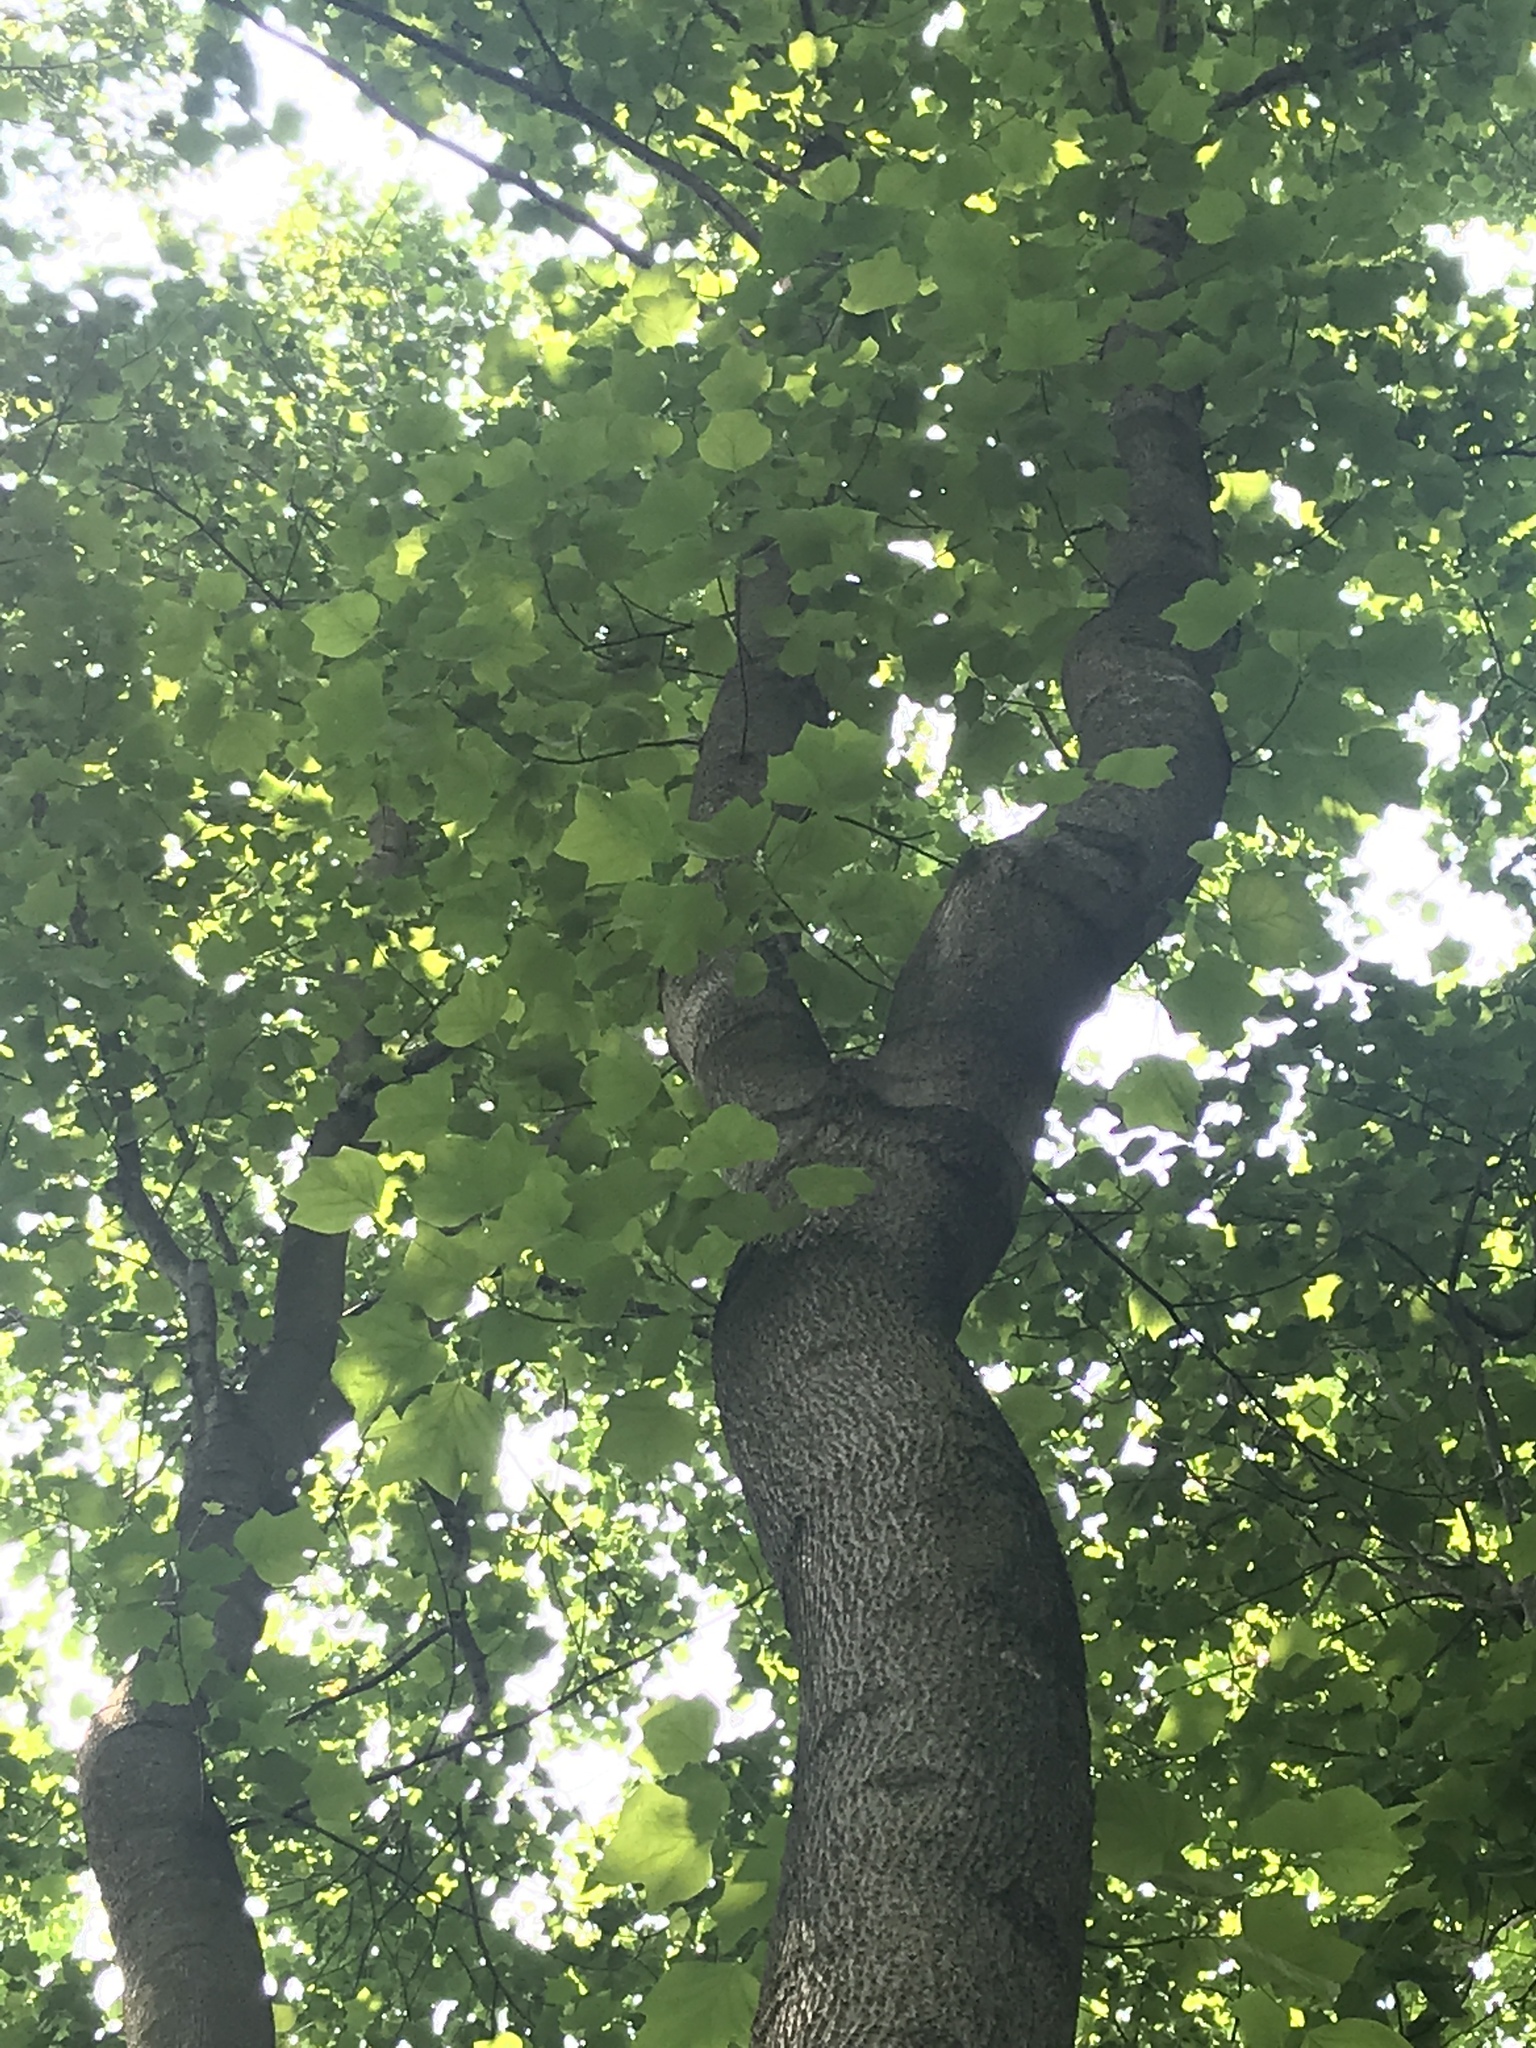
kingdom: Plantae
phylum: Tracheophyta
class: Magnoliopsida
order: Magnoliales
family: Magnoliaceae
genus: Liriodendron
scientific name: Liriodendron tulipifera
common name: Tulip tree
